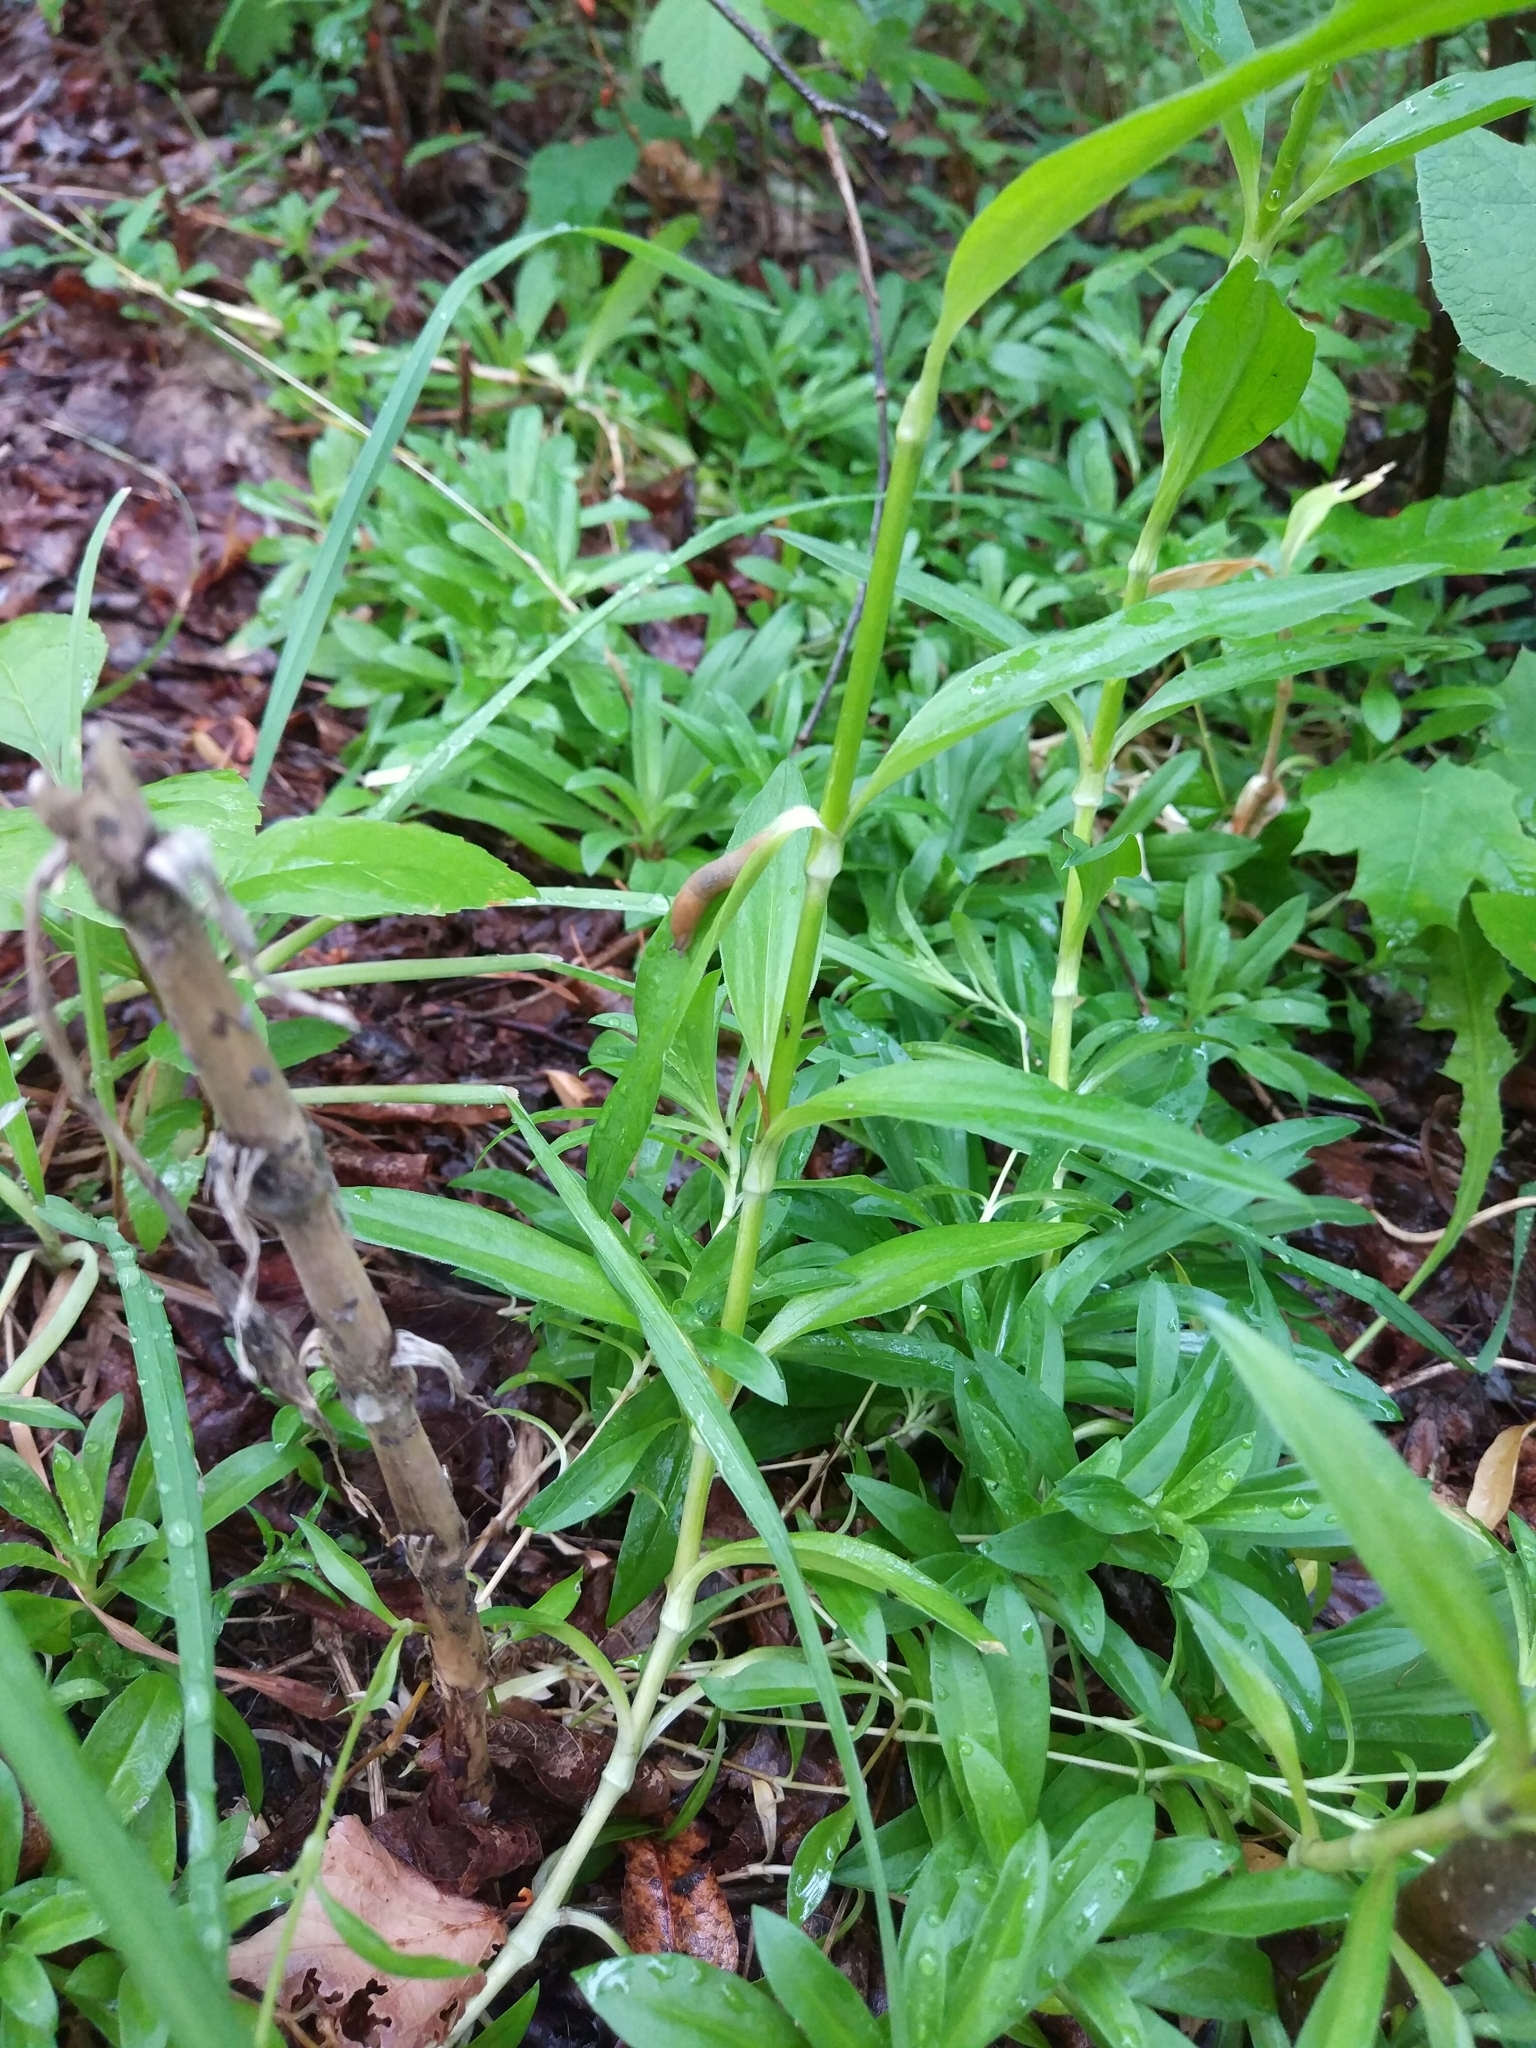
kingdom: Plantae
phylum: Tracheophyta
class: Magnoliopsida
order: Caryophyllales
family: Caryophyllaceae
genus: Dianthus
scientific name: Dianthus barbatus
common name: Sweet-william
